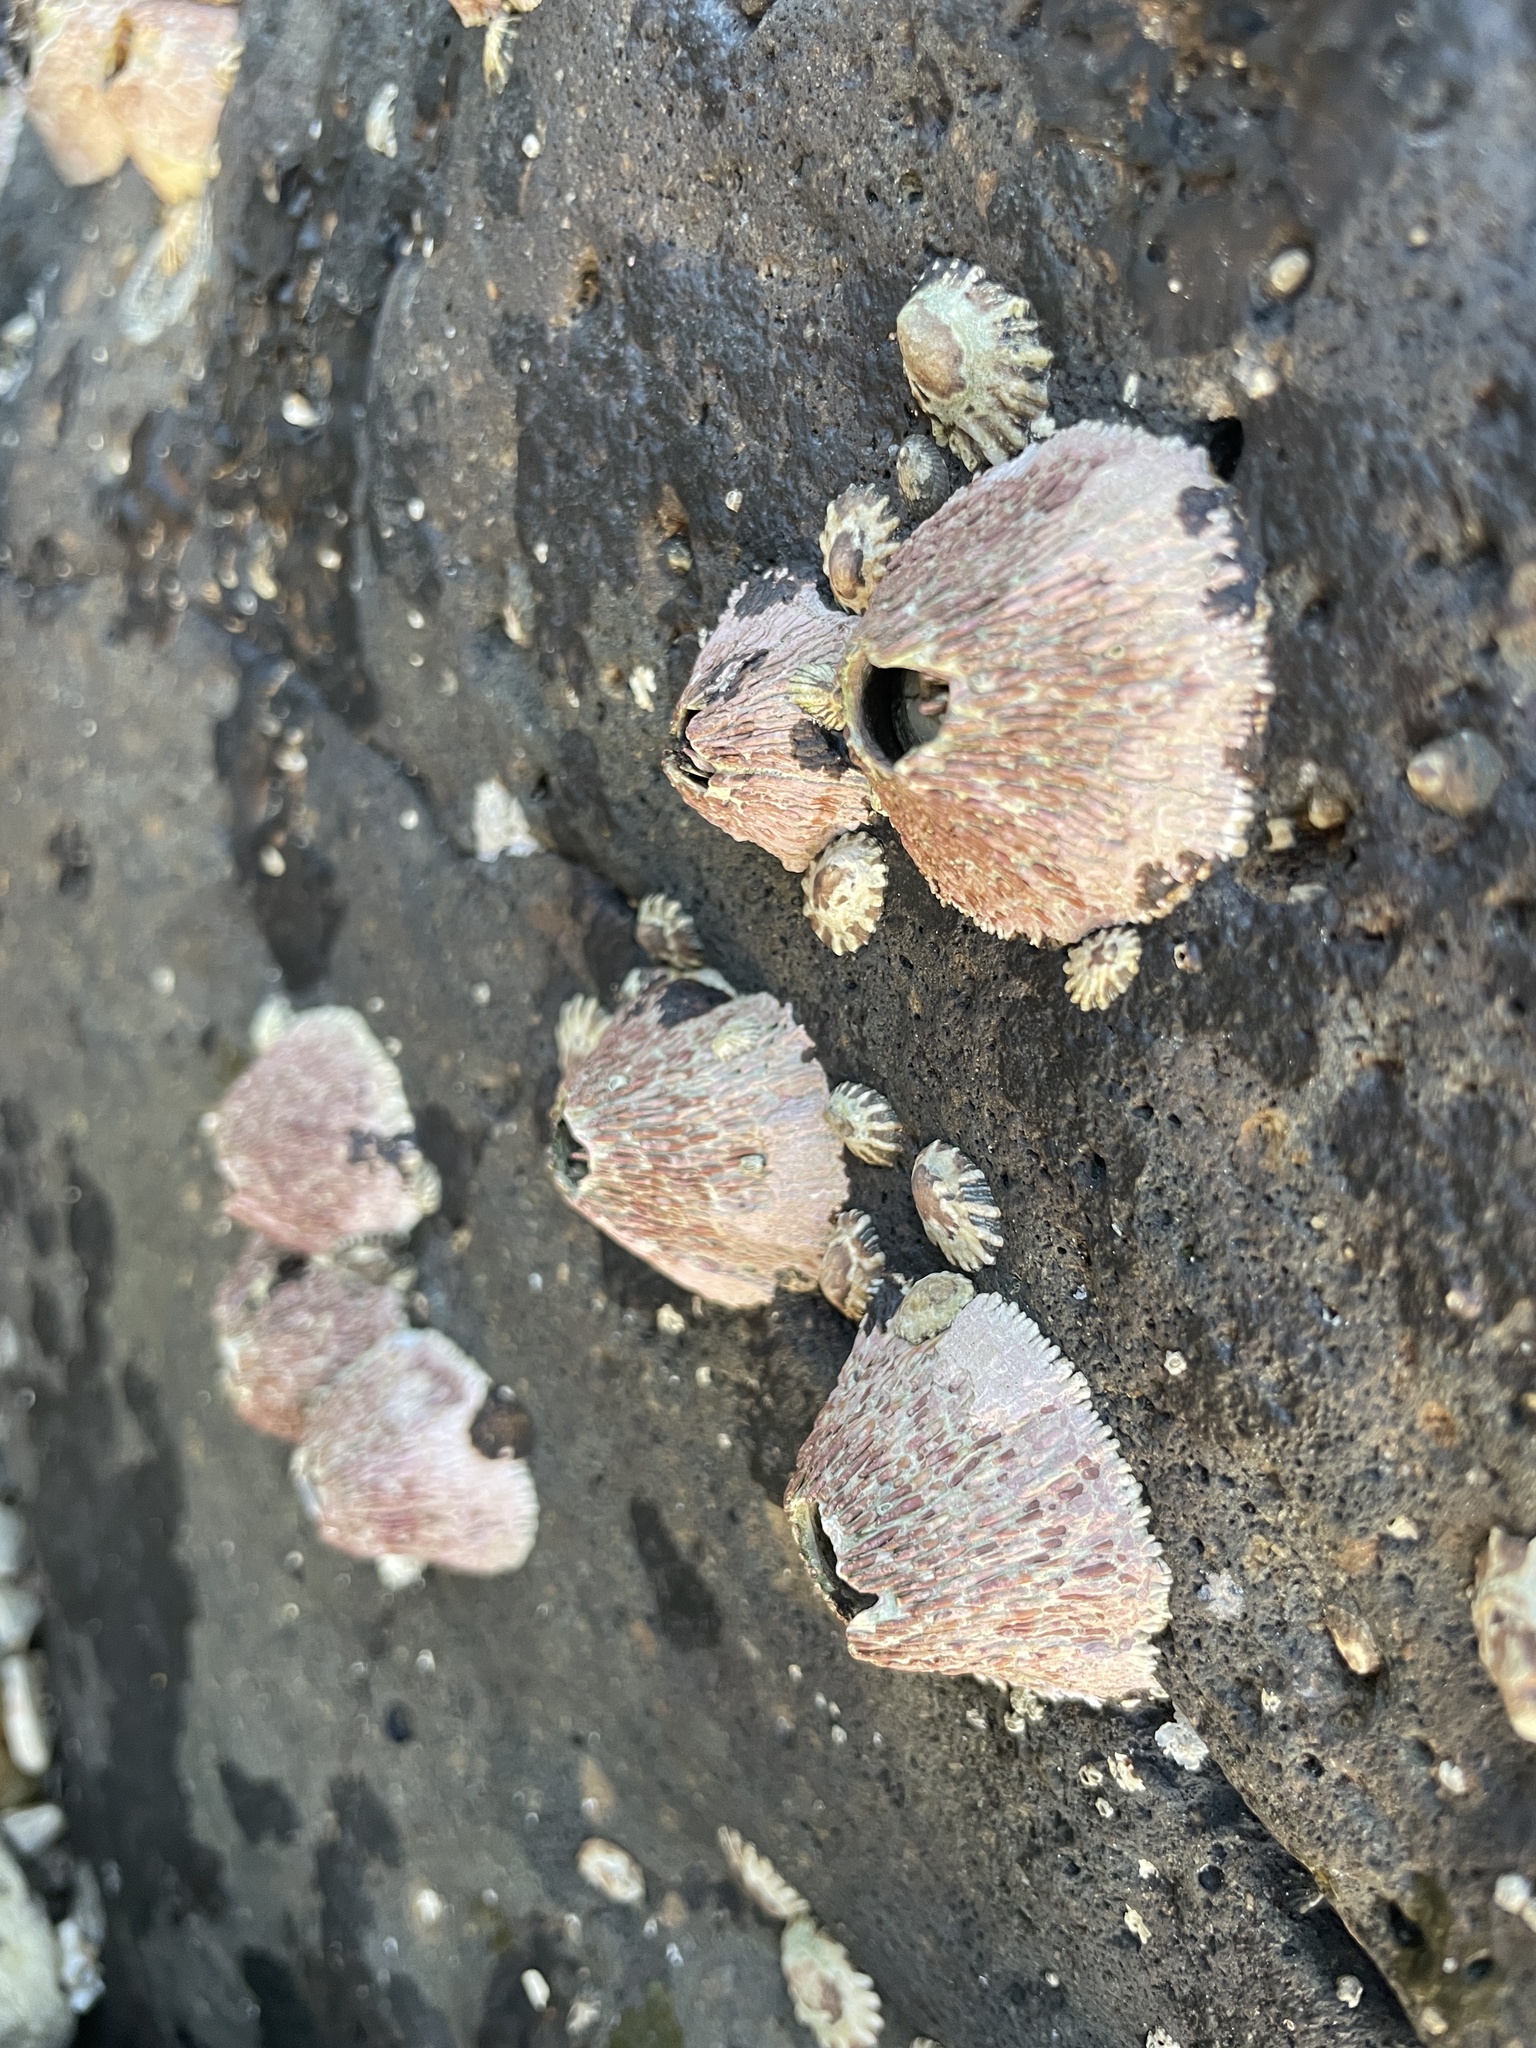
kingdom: Animalia
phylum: Arthropoda
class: Maxillopoda
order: Sessilia
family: Tetraclitidae
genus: Tetraclita
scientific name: Tetraclita rubescens
